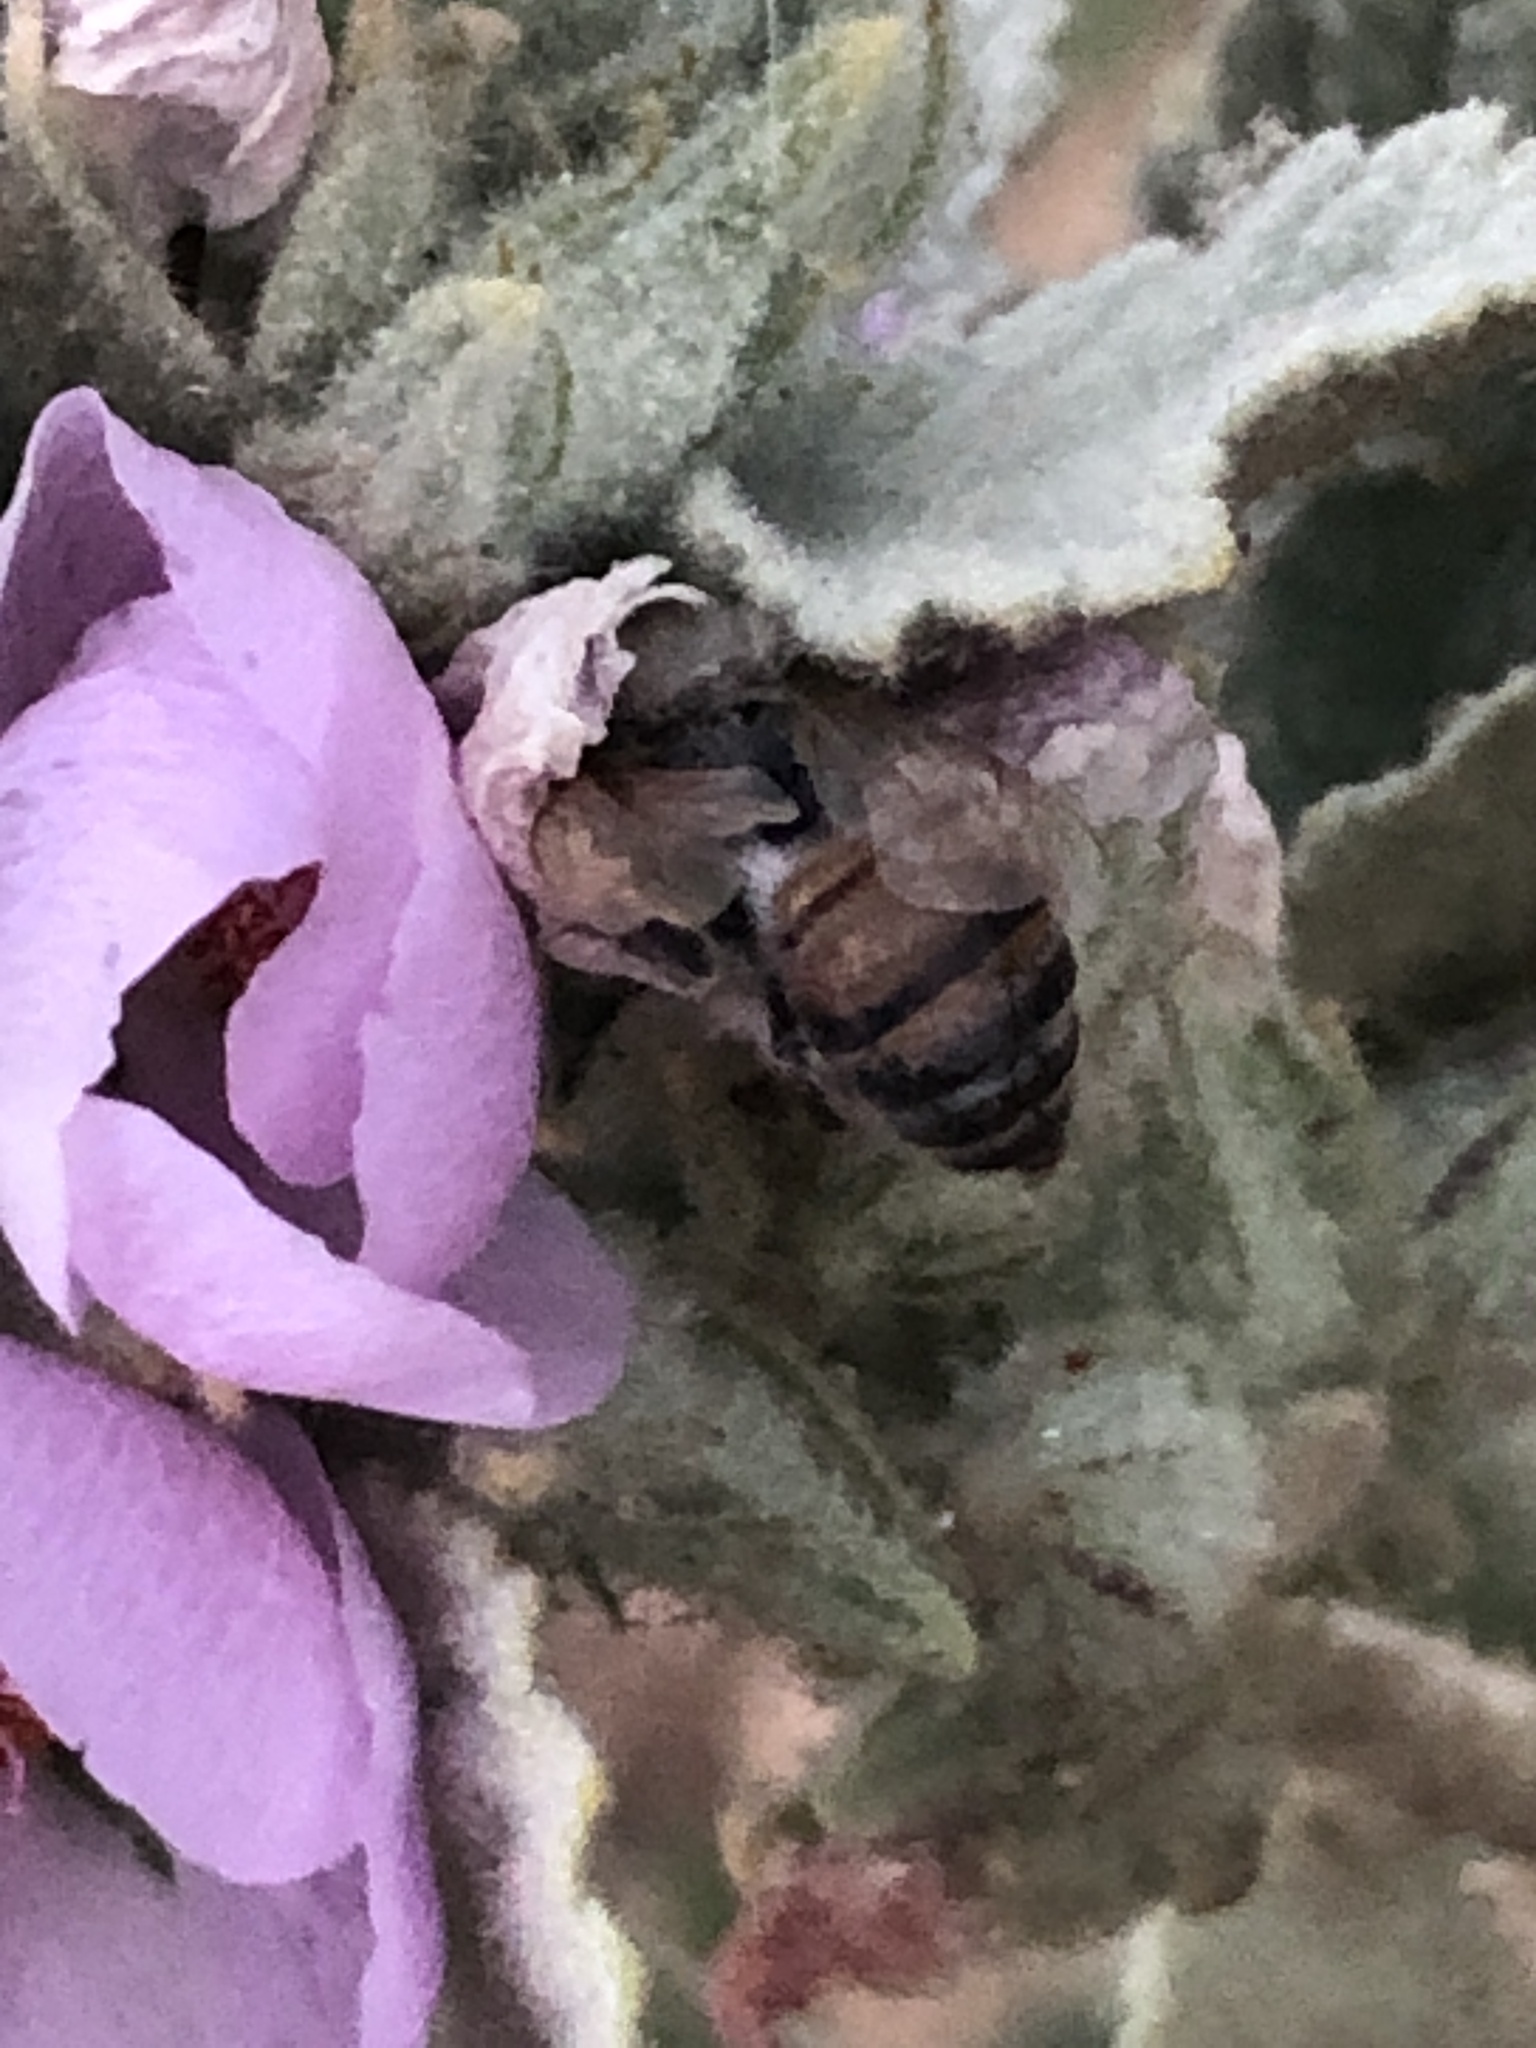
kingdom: Animalia
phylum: Arthropoda
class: Insecta
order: Hymenoptera
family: Apidae
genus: Apis
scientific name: Apis mellifera
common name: Honey bee
